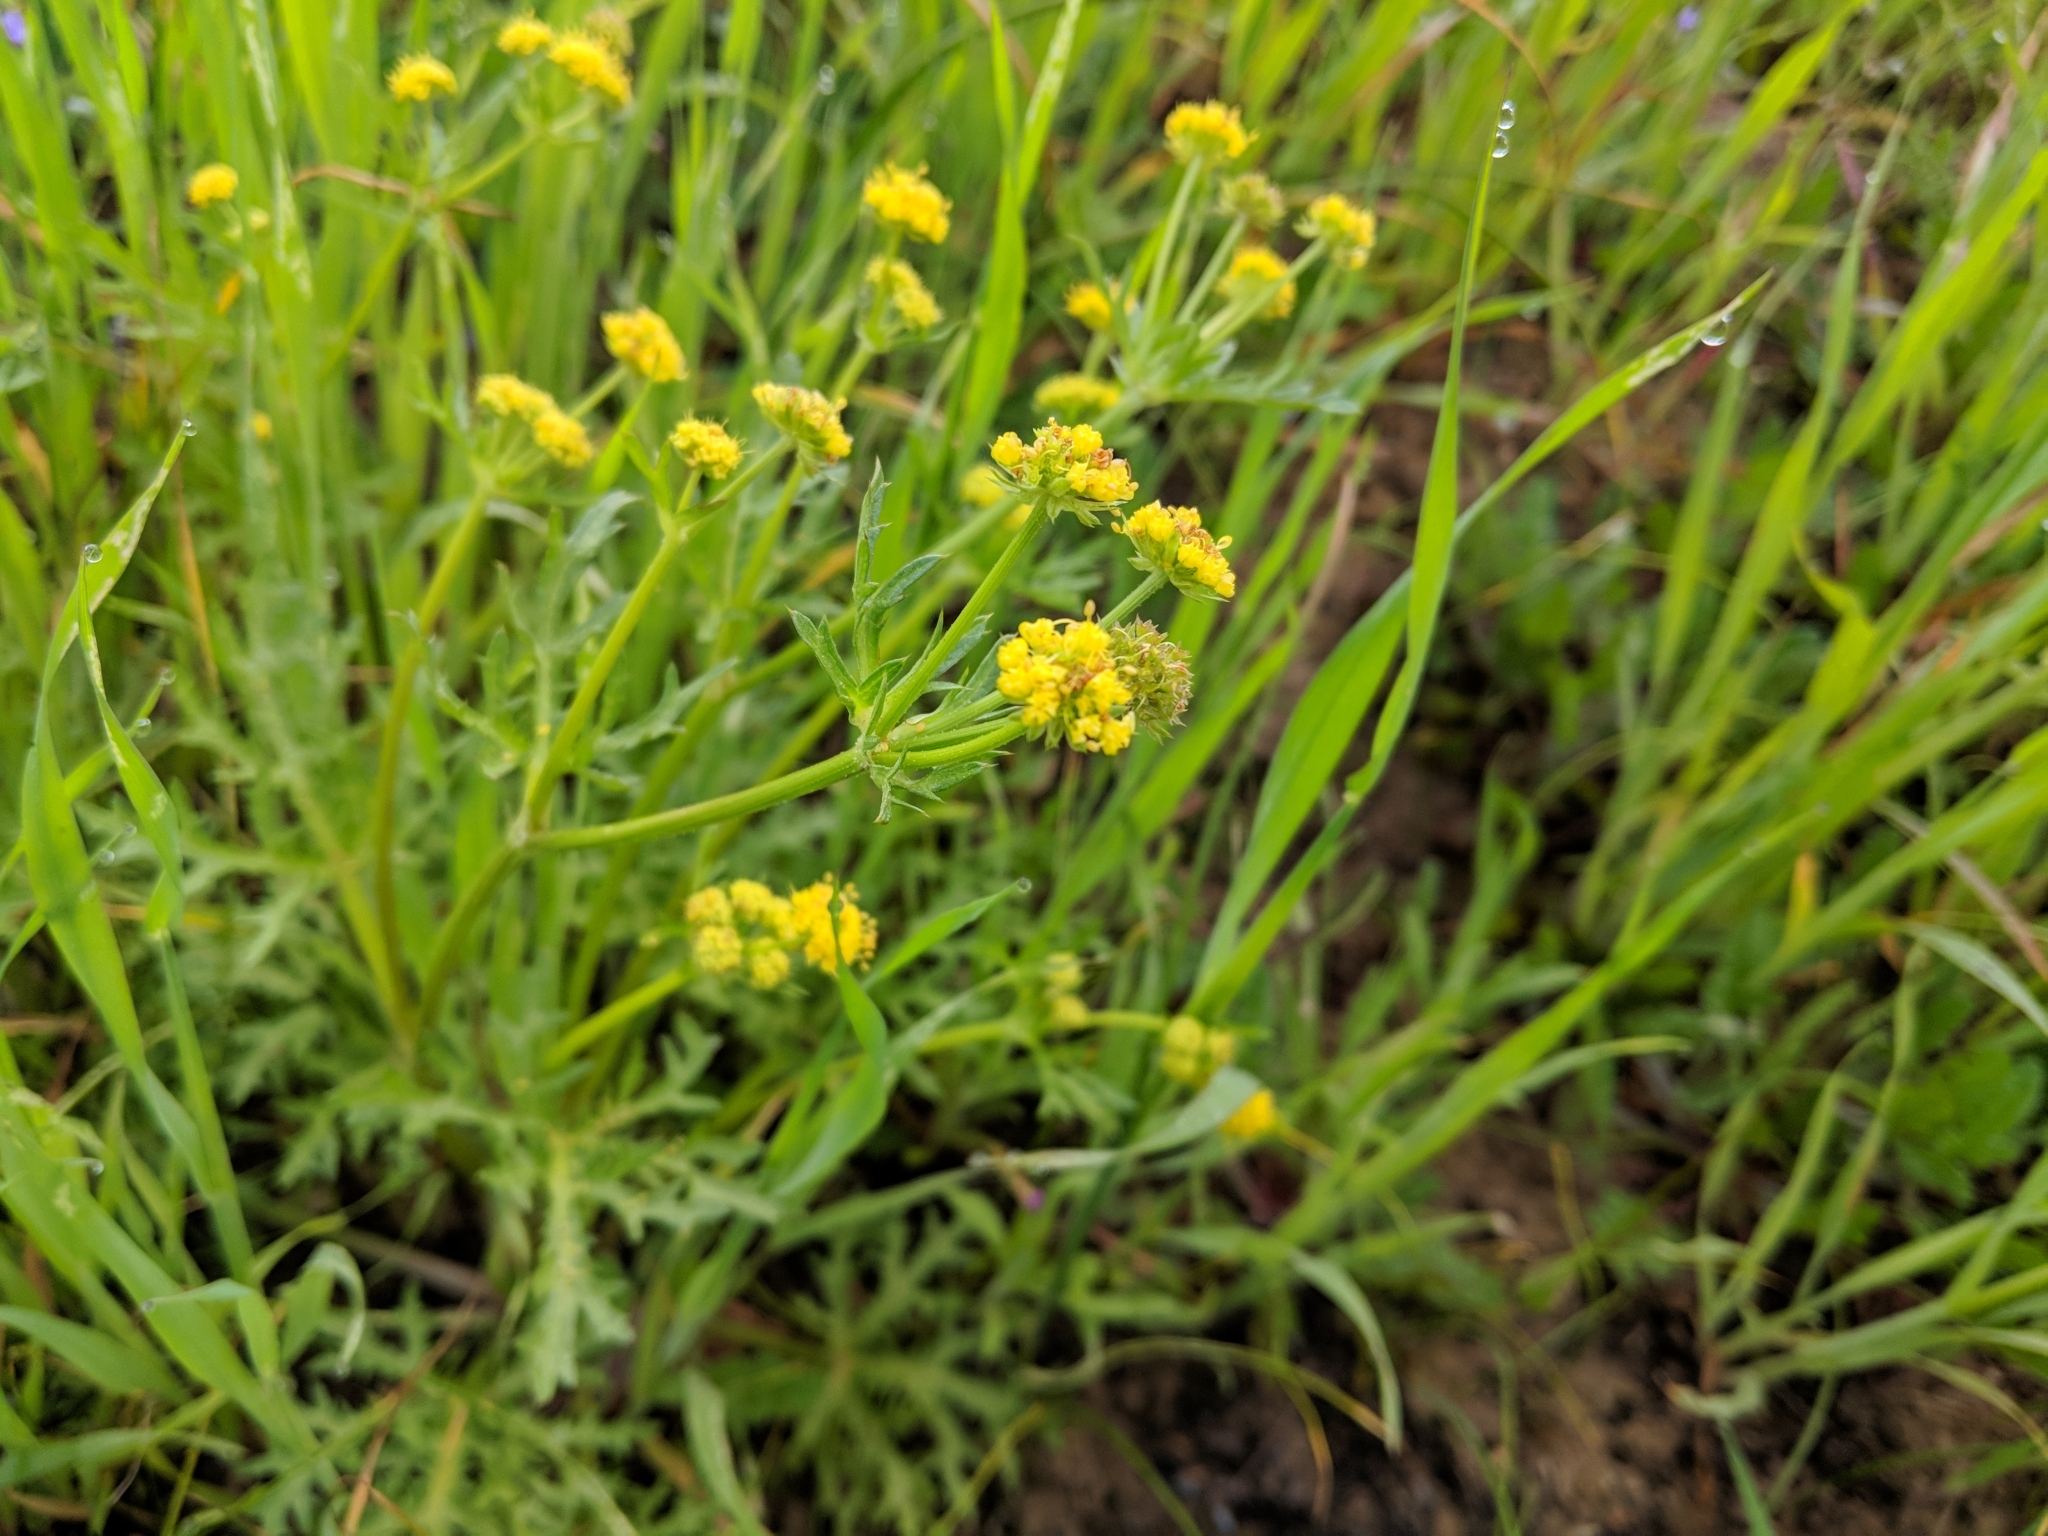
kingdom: Plantae
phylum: Tracheophyta
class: Magnoliopsida
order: Apiales
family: Apiaceae
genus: Sanicula
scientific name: Sanicula arguta
